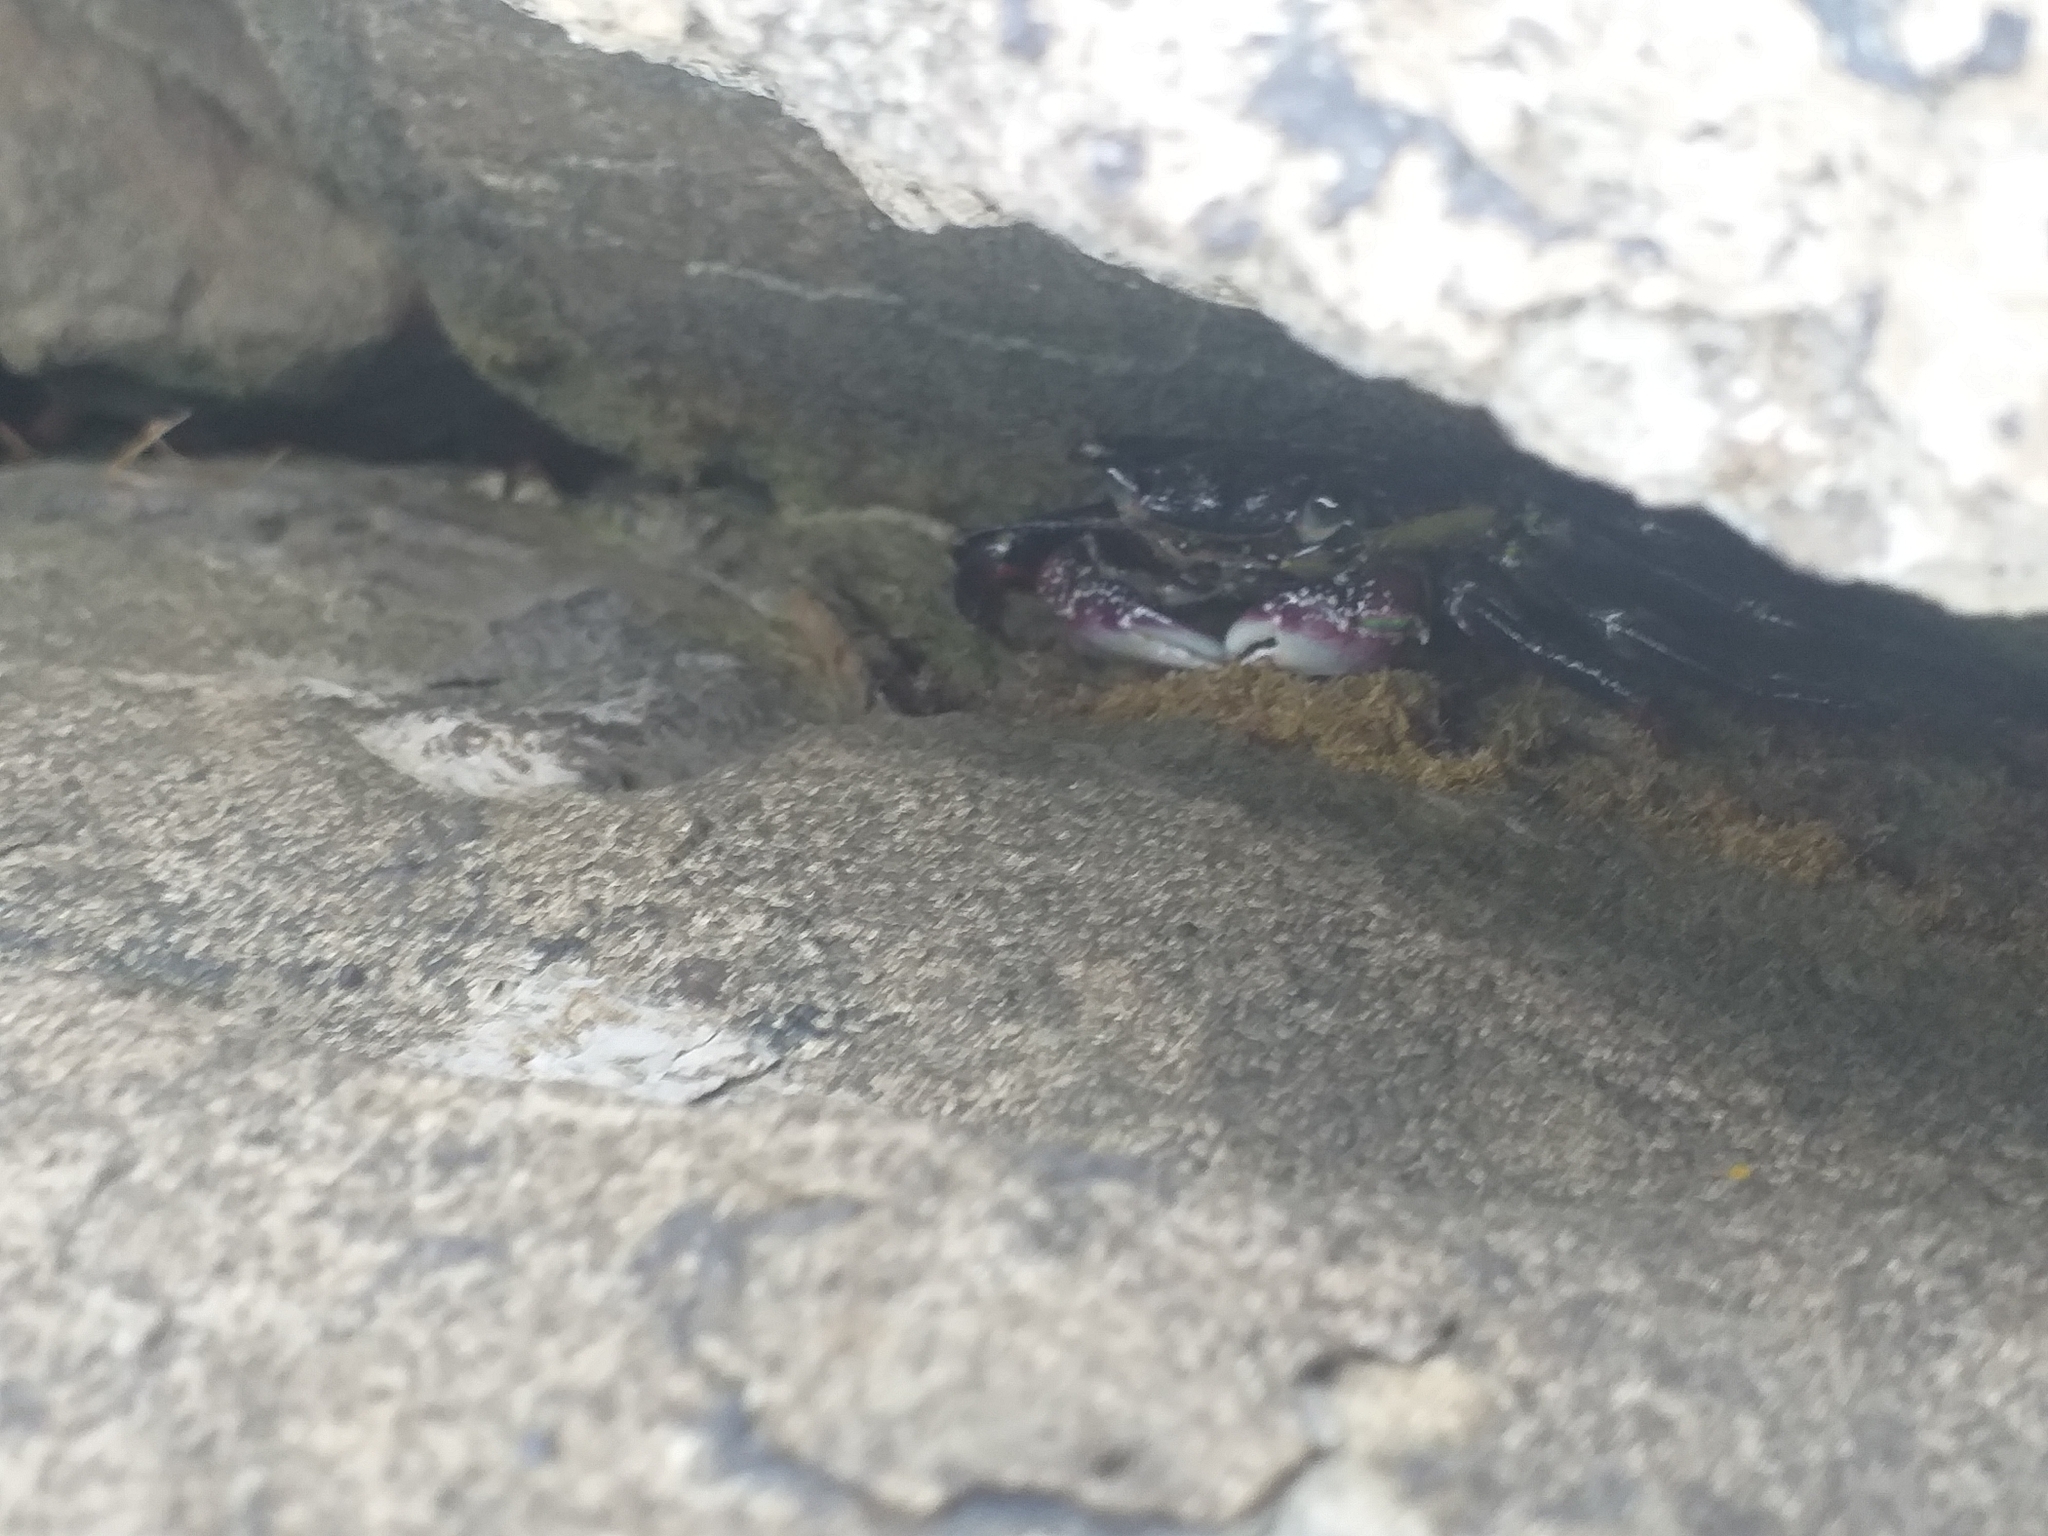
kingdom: Animalia
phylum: Arthropoda
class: Malacostraca
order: Decapoda
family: Grapsidae
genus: Leptograpsus
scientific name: Leptograpsus variegatus
